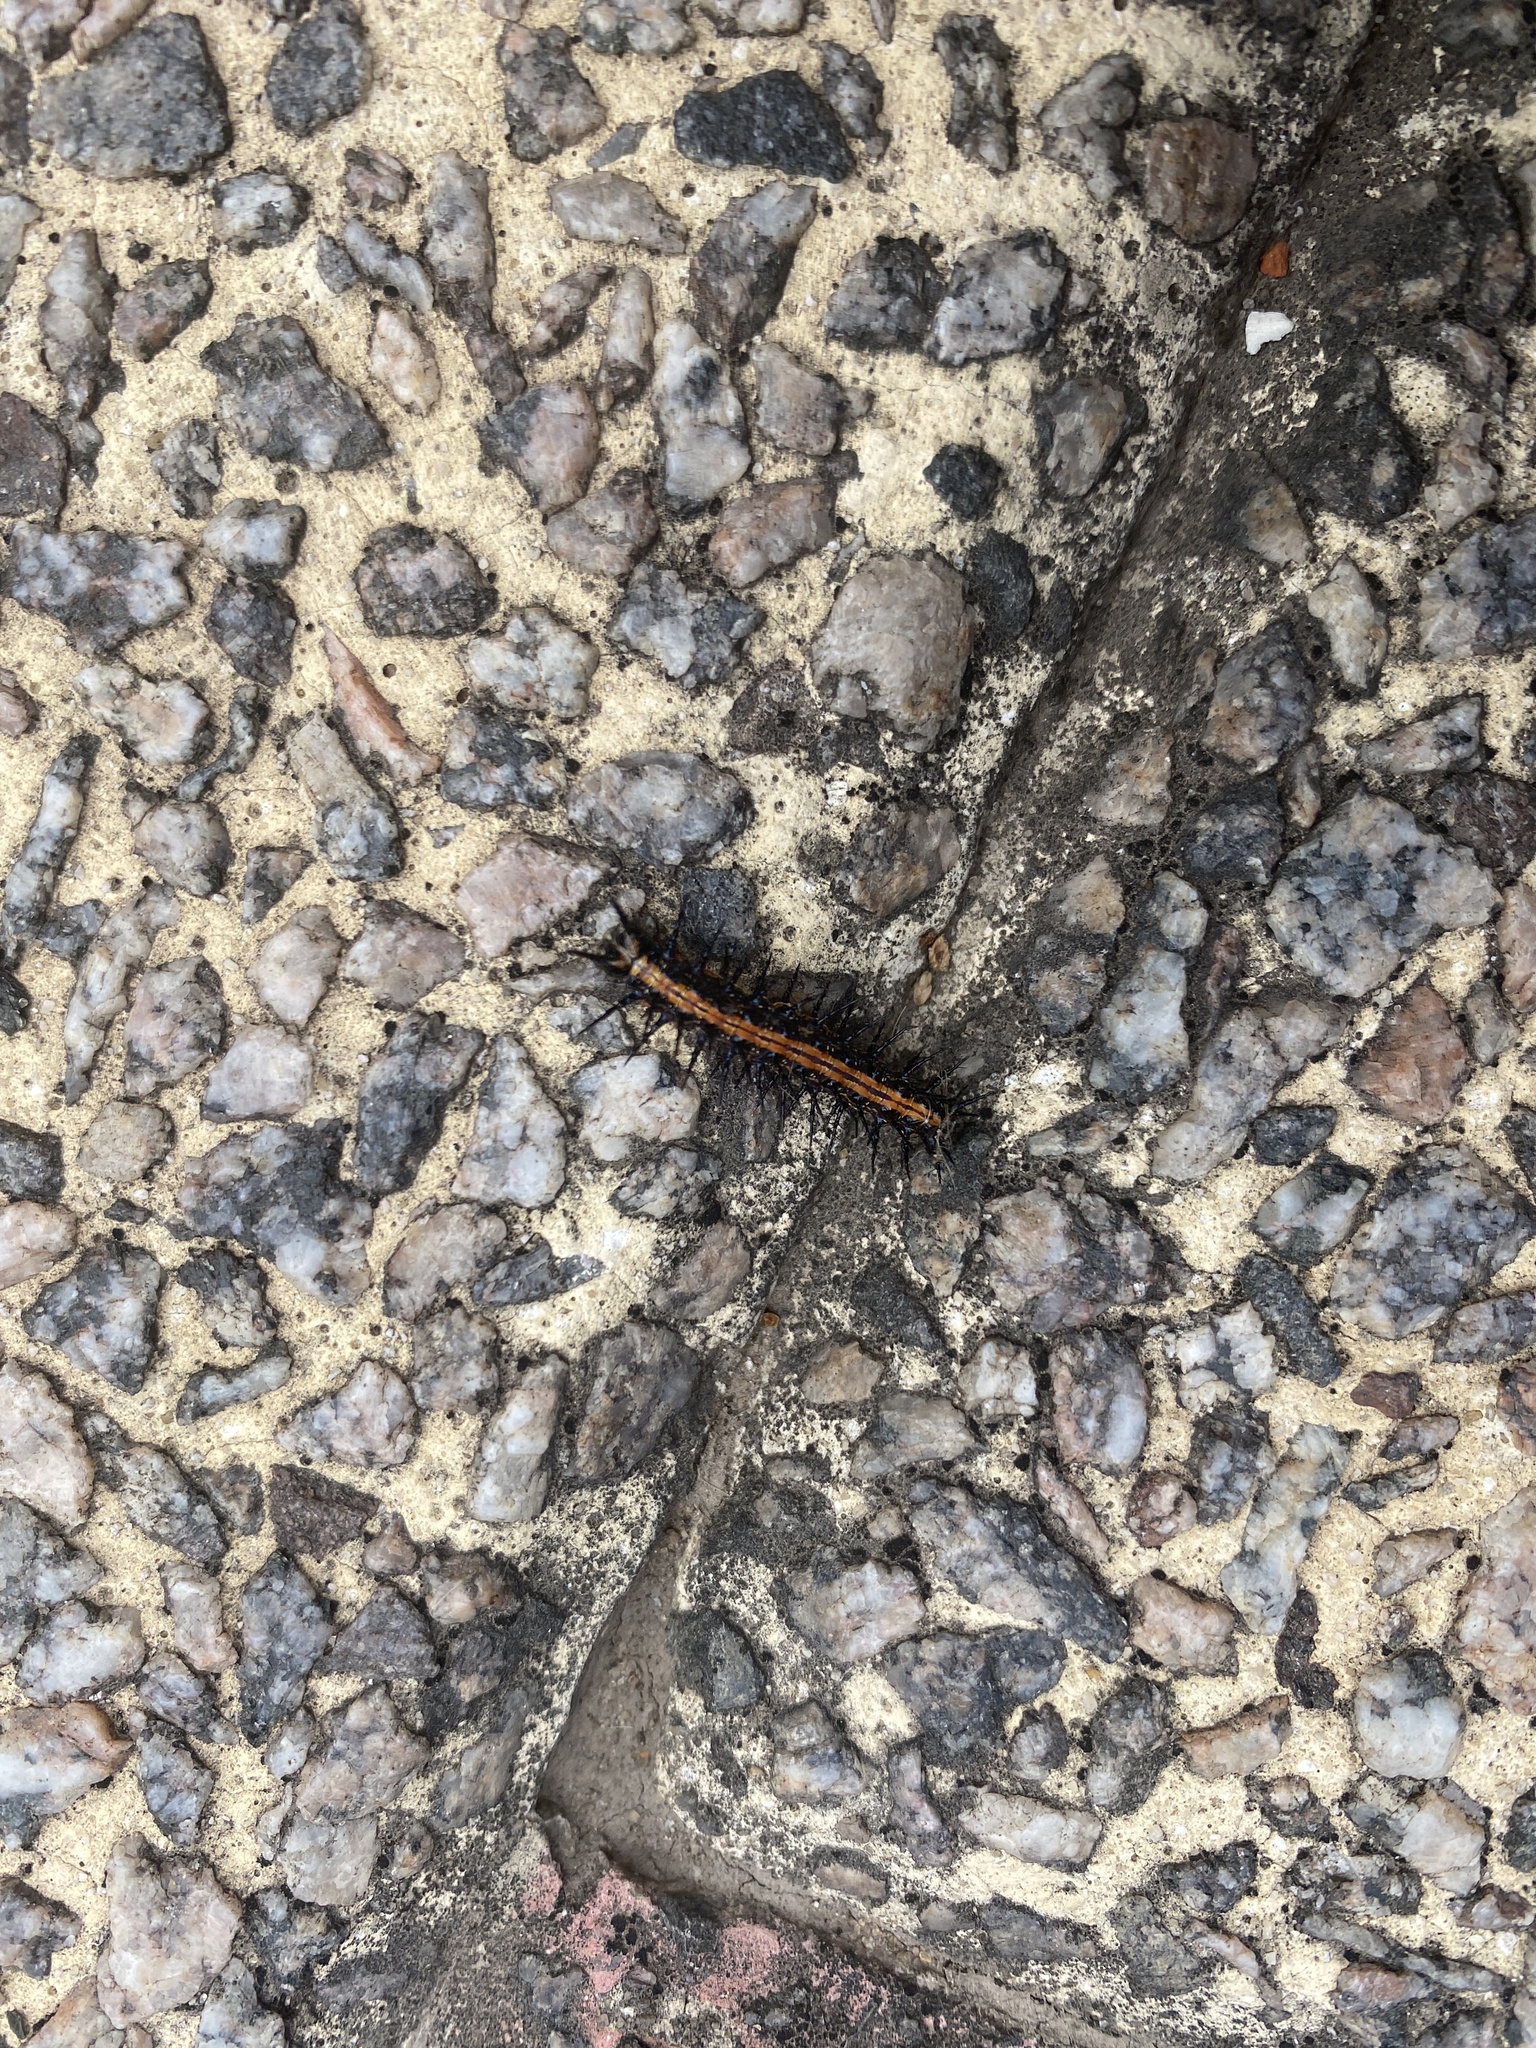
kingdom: Animalia
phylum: Arthropoda
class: Insecta
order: Lepidoptera
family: Nymphalidae
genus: Dione
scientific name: Dione vanillae
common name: Gulf fritillary
